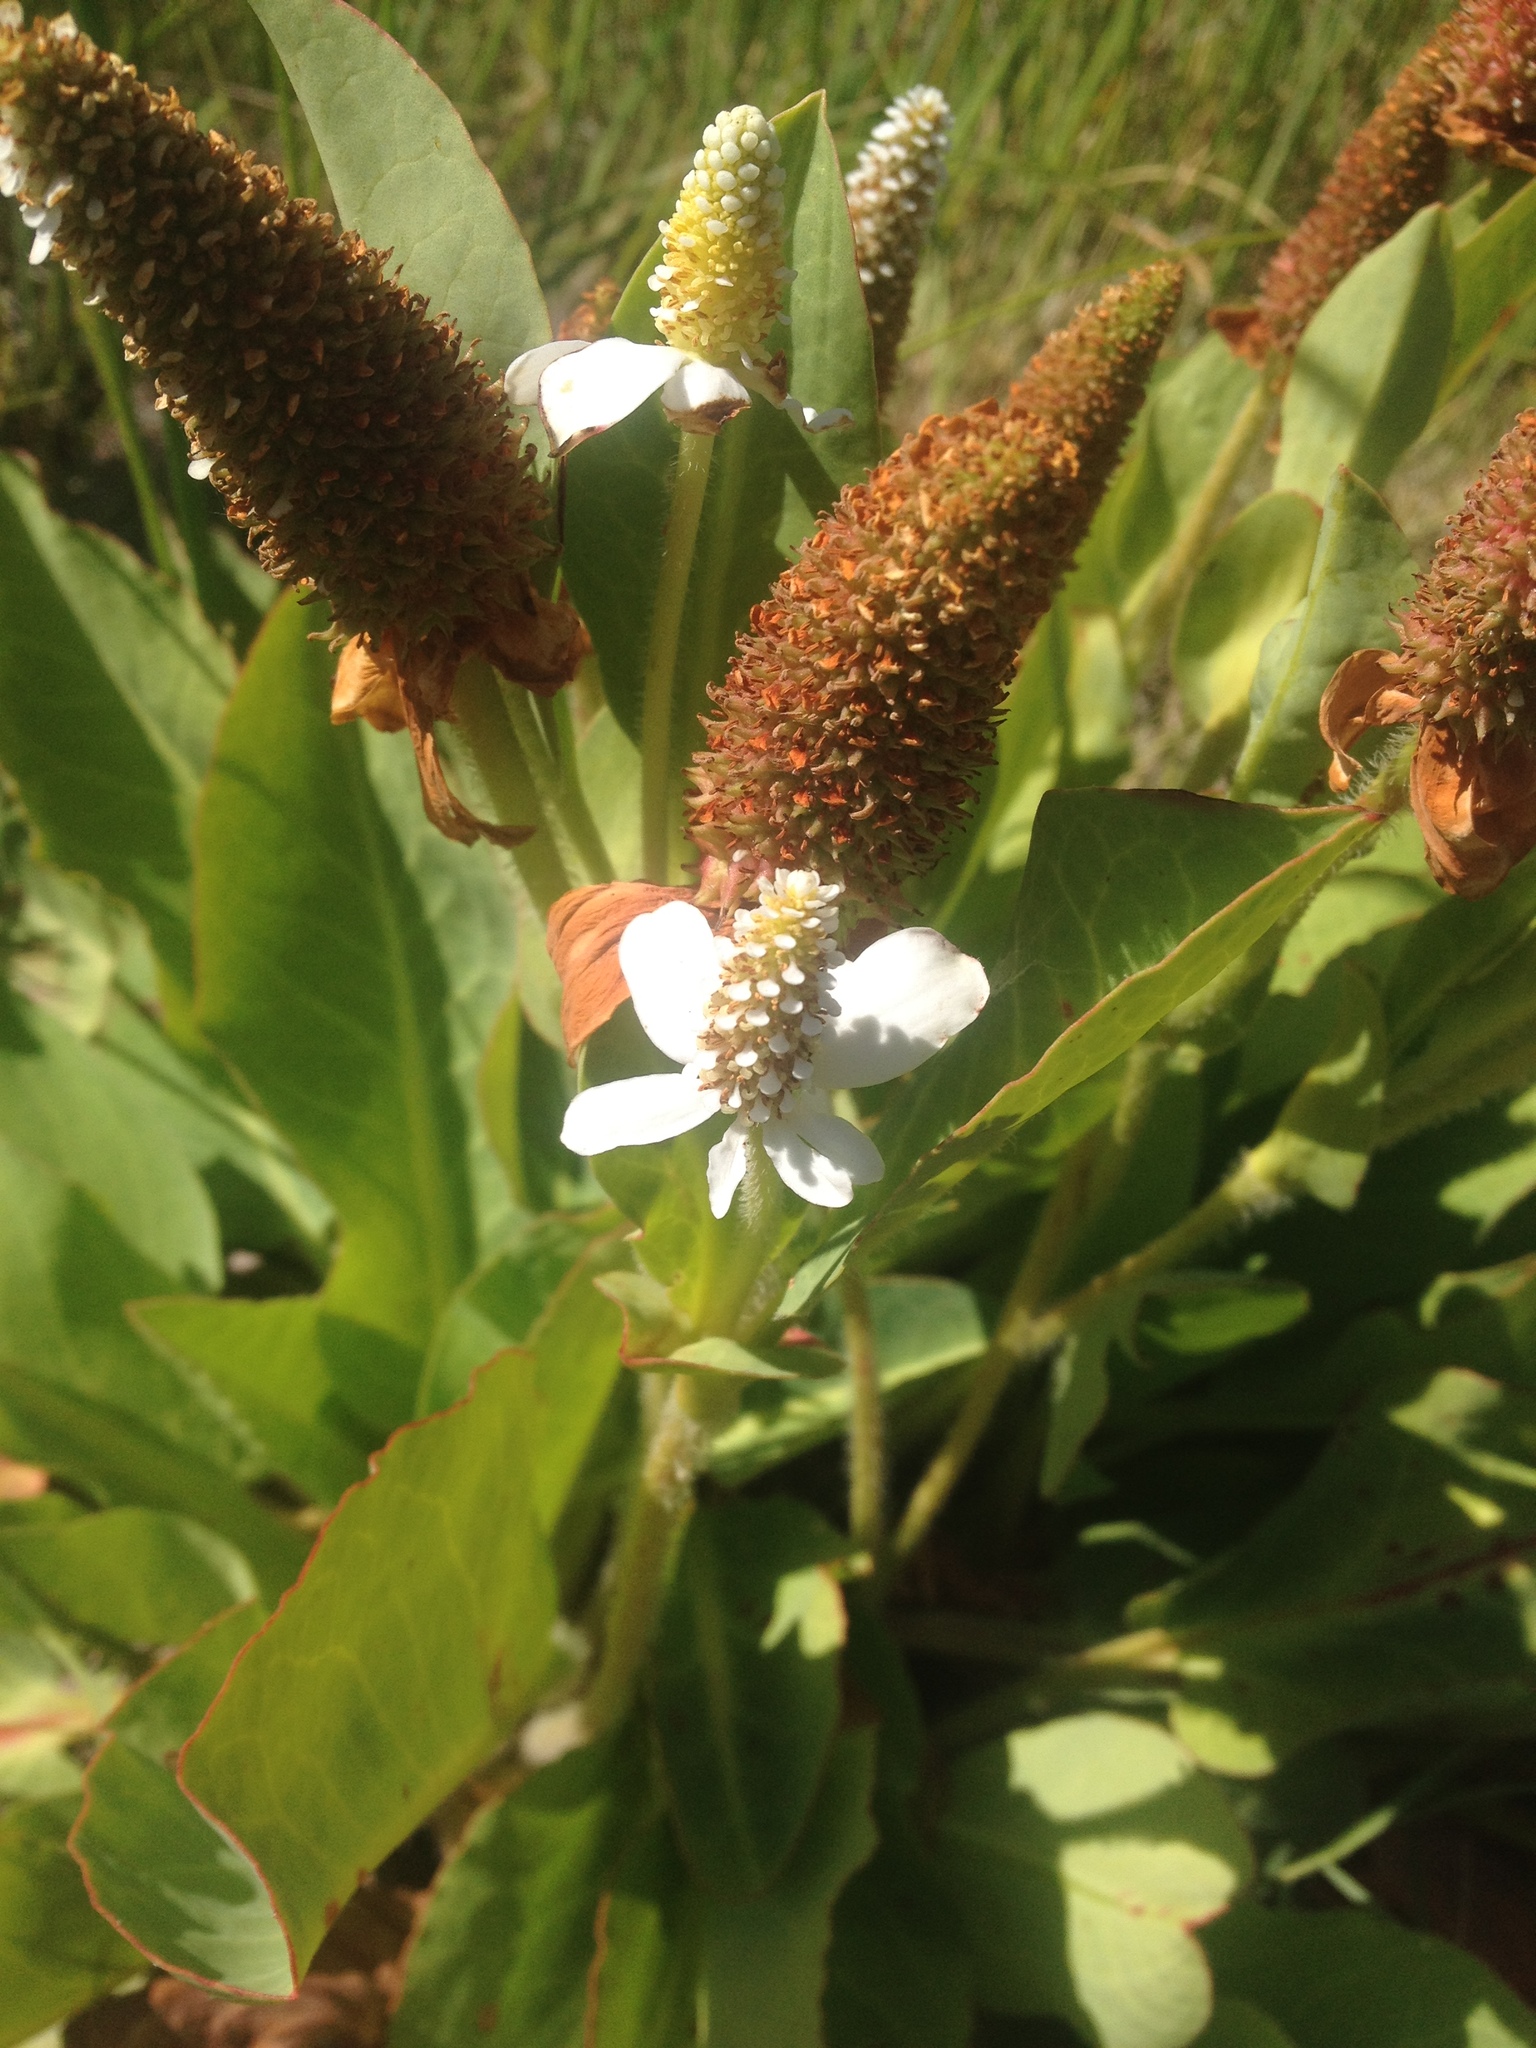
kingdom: Plantae
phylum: Tracheophyta
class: Magnoliopsida
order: Piperales
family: Saururaceae
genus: Anemopsis
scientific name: Anemopsis californica
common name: Apache-beads
